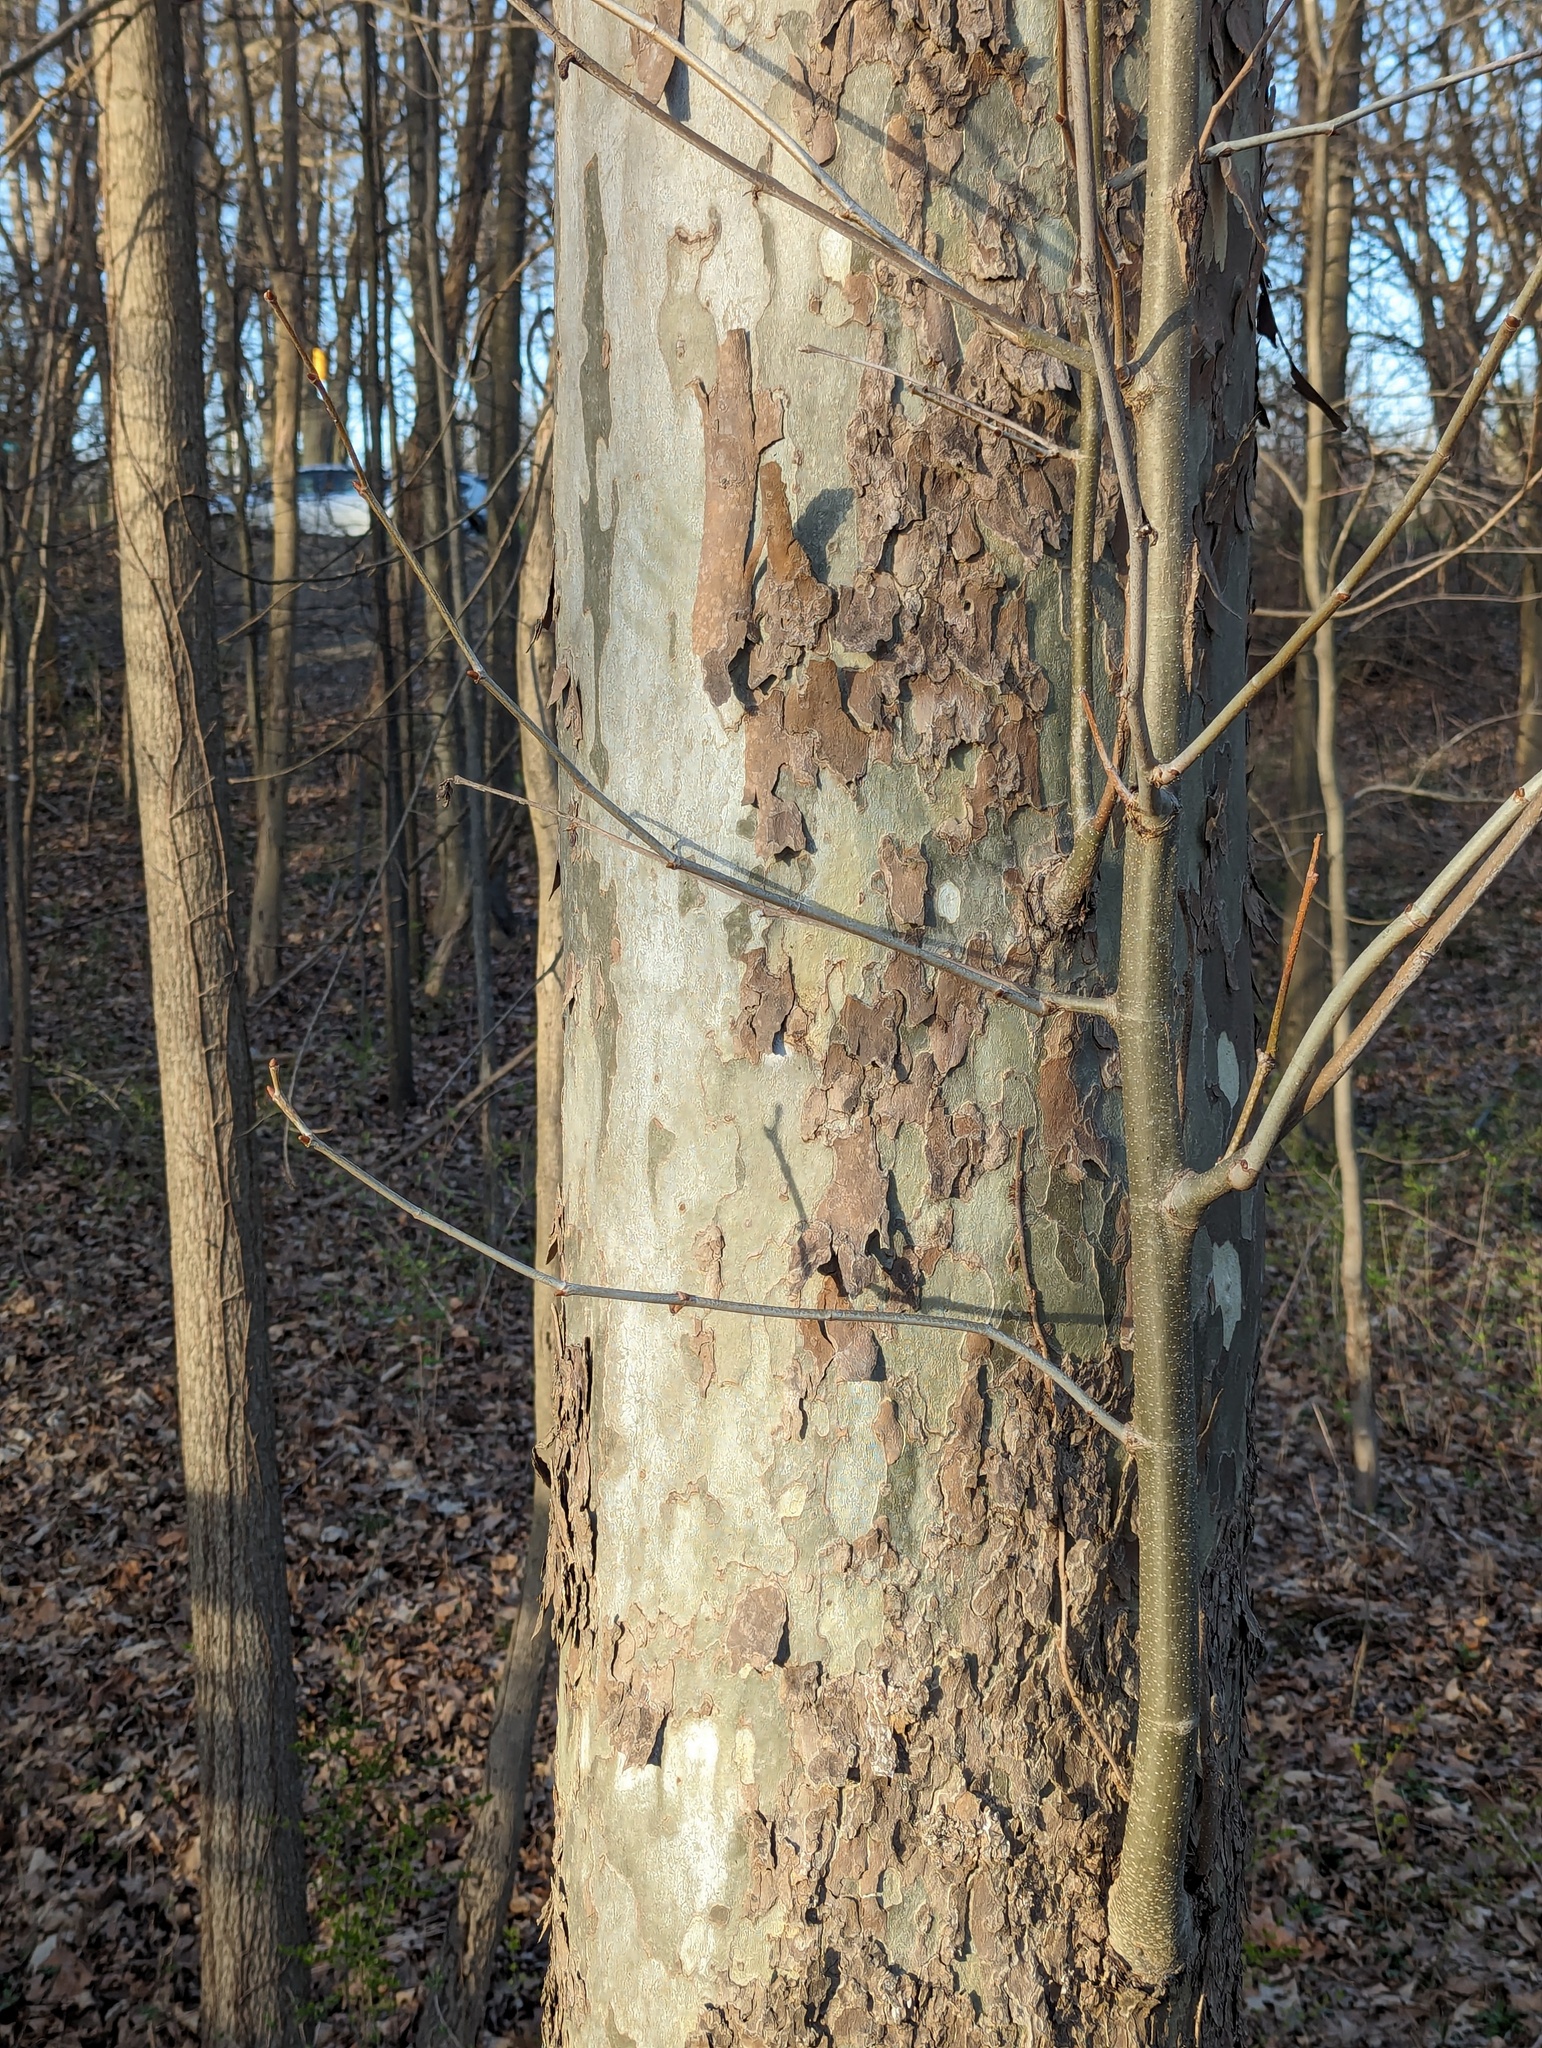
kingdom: Plantae
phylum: Tracheophyta
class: Magnoliopsida
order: Proteales
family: Platanaceae
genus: Platanus
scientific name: Platanus occidentalis
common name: American sycamore
